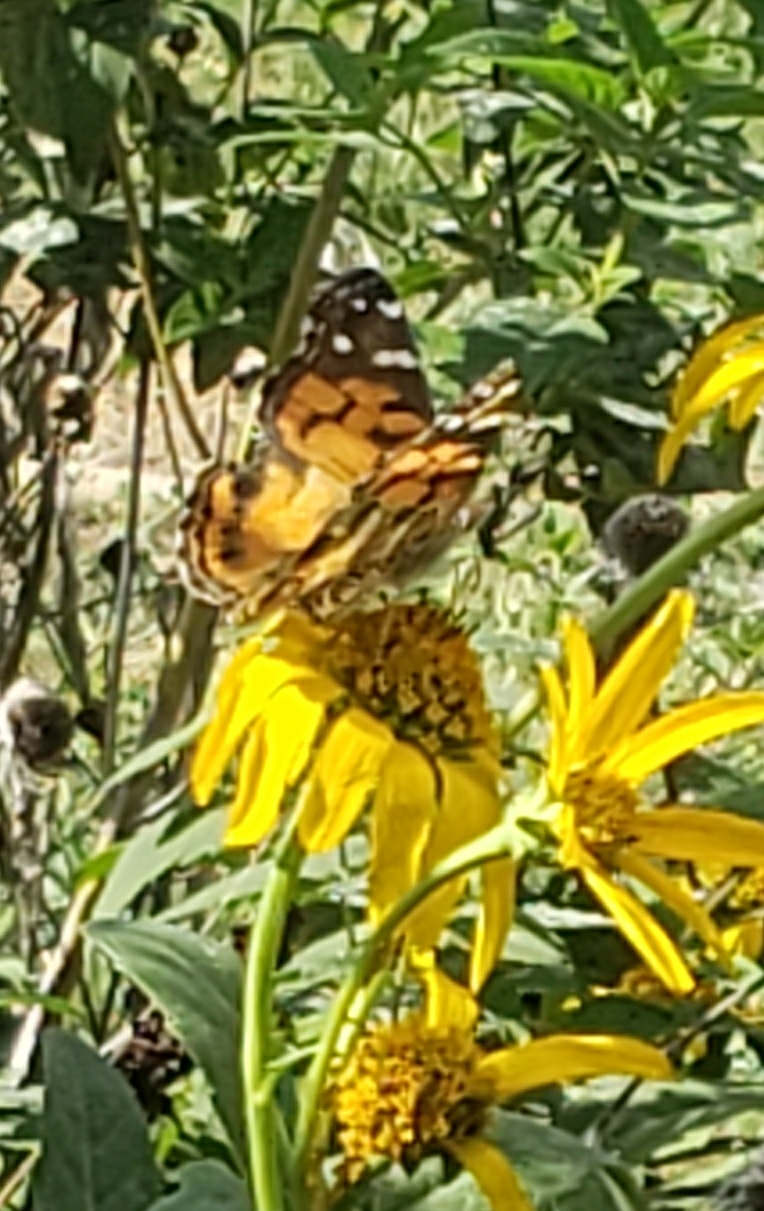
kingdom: Animalia
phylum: Arthropoda
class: Insecta
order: Lepidoptera
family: Nymphalidae
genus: Vanessa
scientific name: Vanessa virginiensis
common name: American lady
